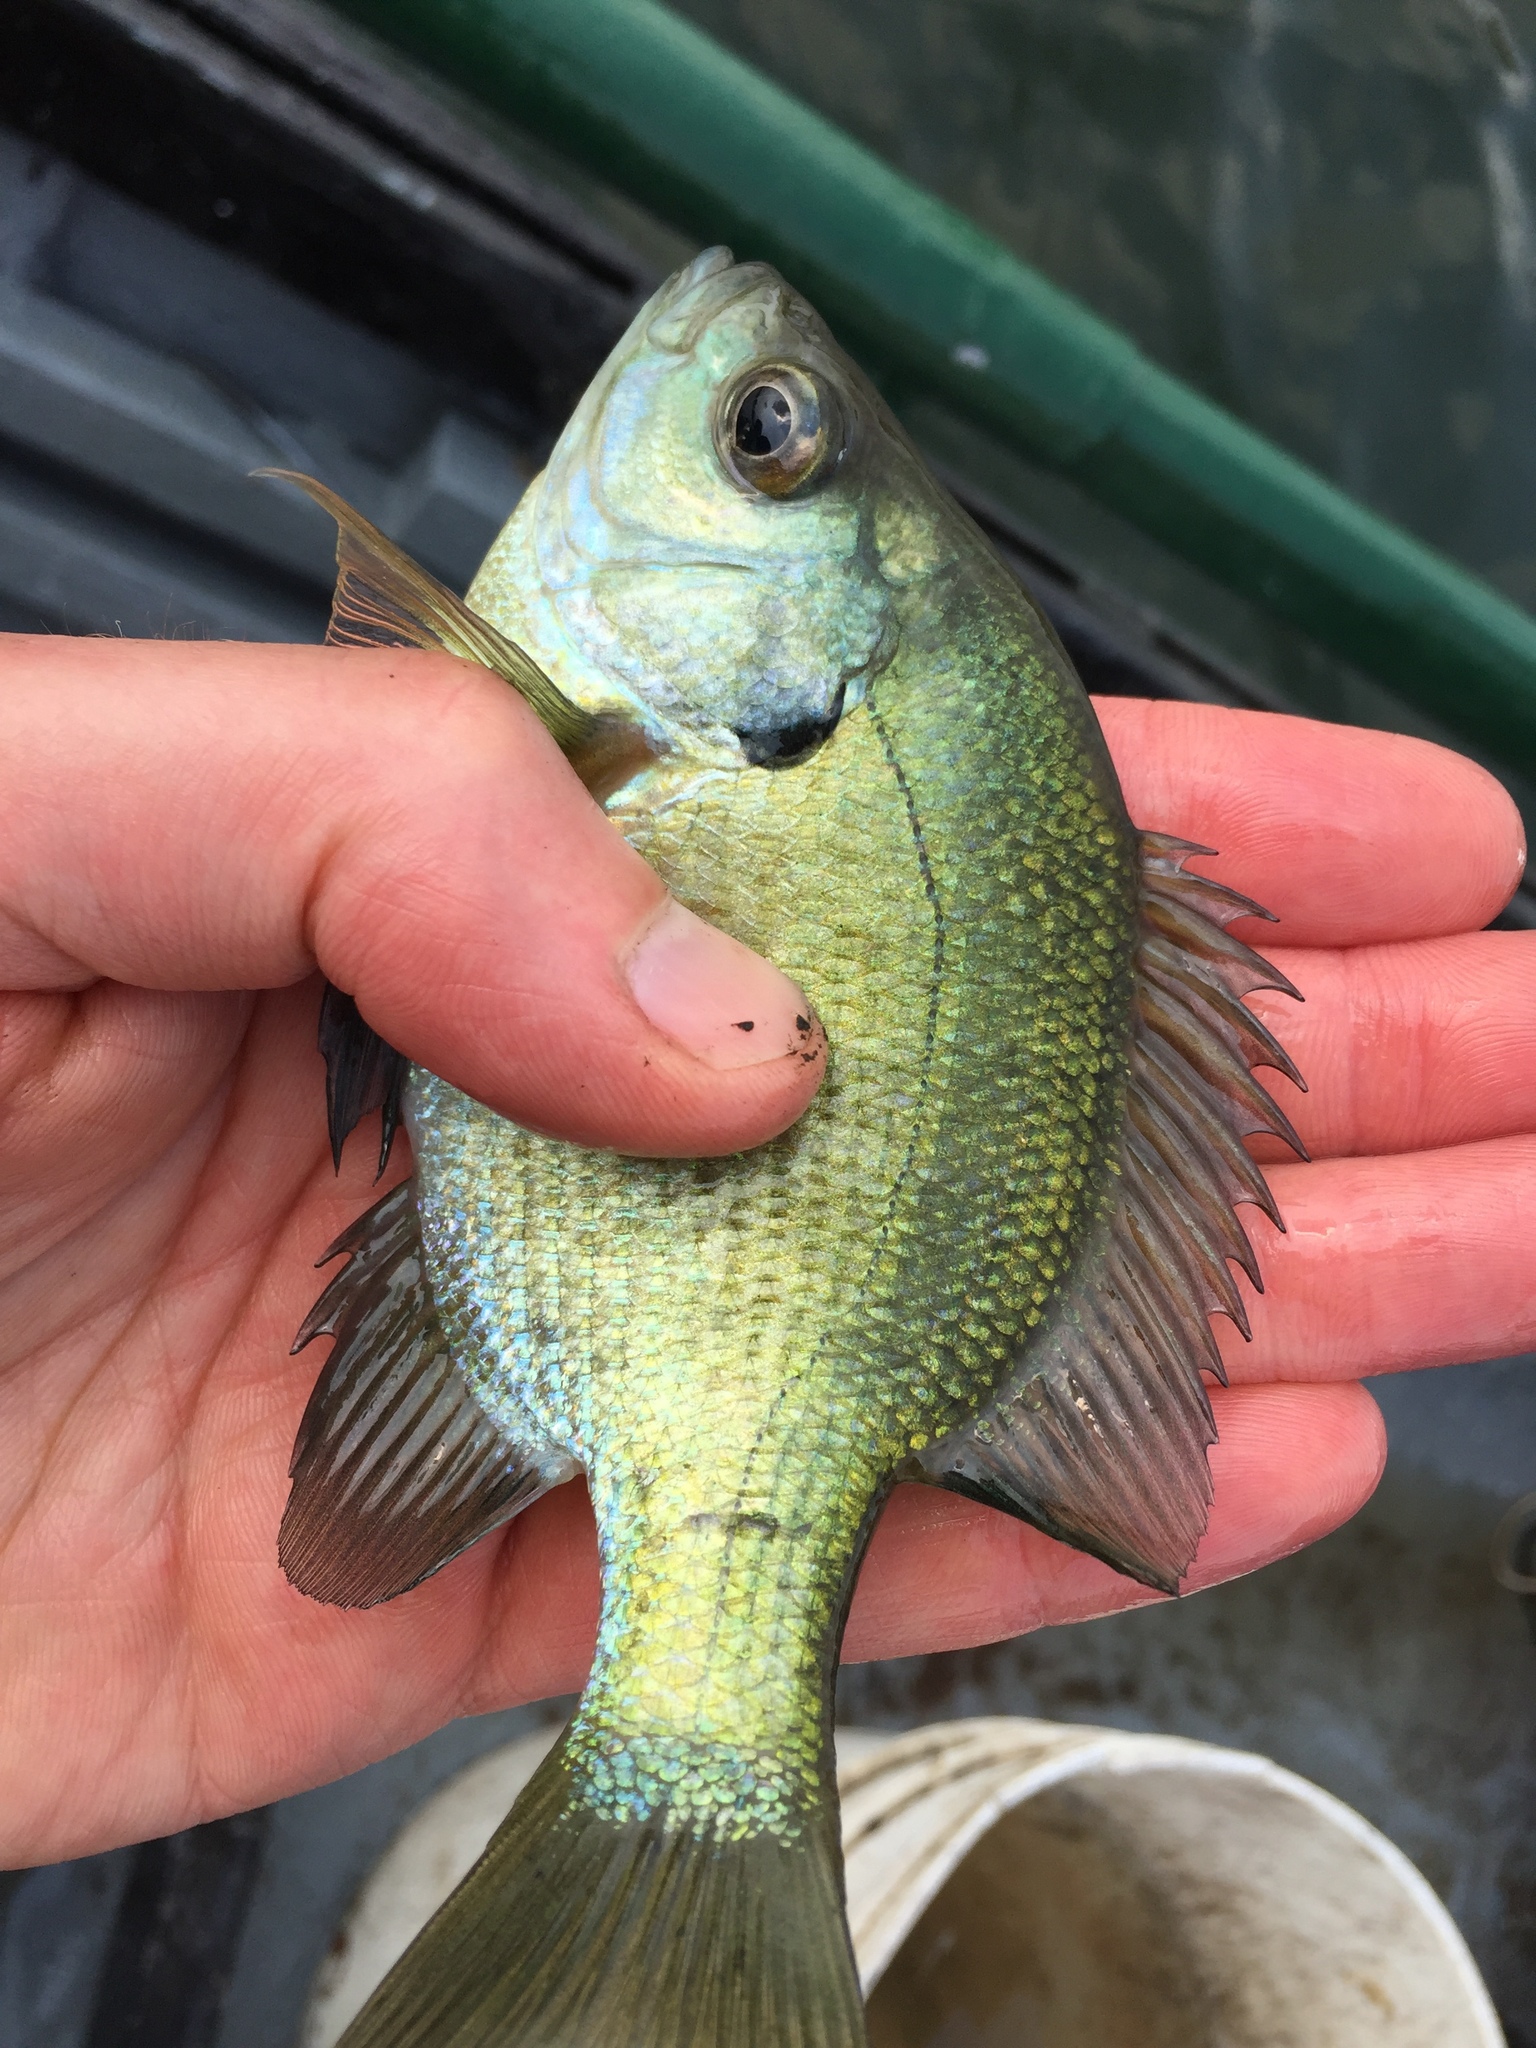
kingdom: Animalia
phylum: Chordata
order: Perciformes
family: Centrarchidae
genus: Lepomis
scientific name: Lepomis macrochirus
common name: Bluegill
